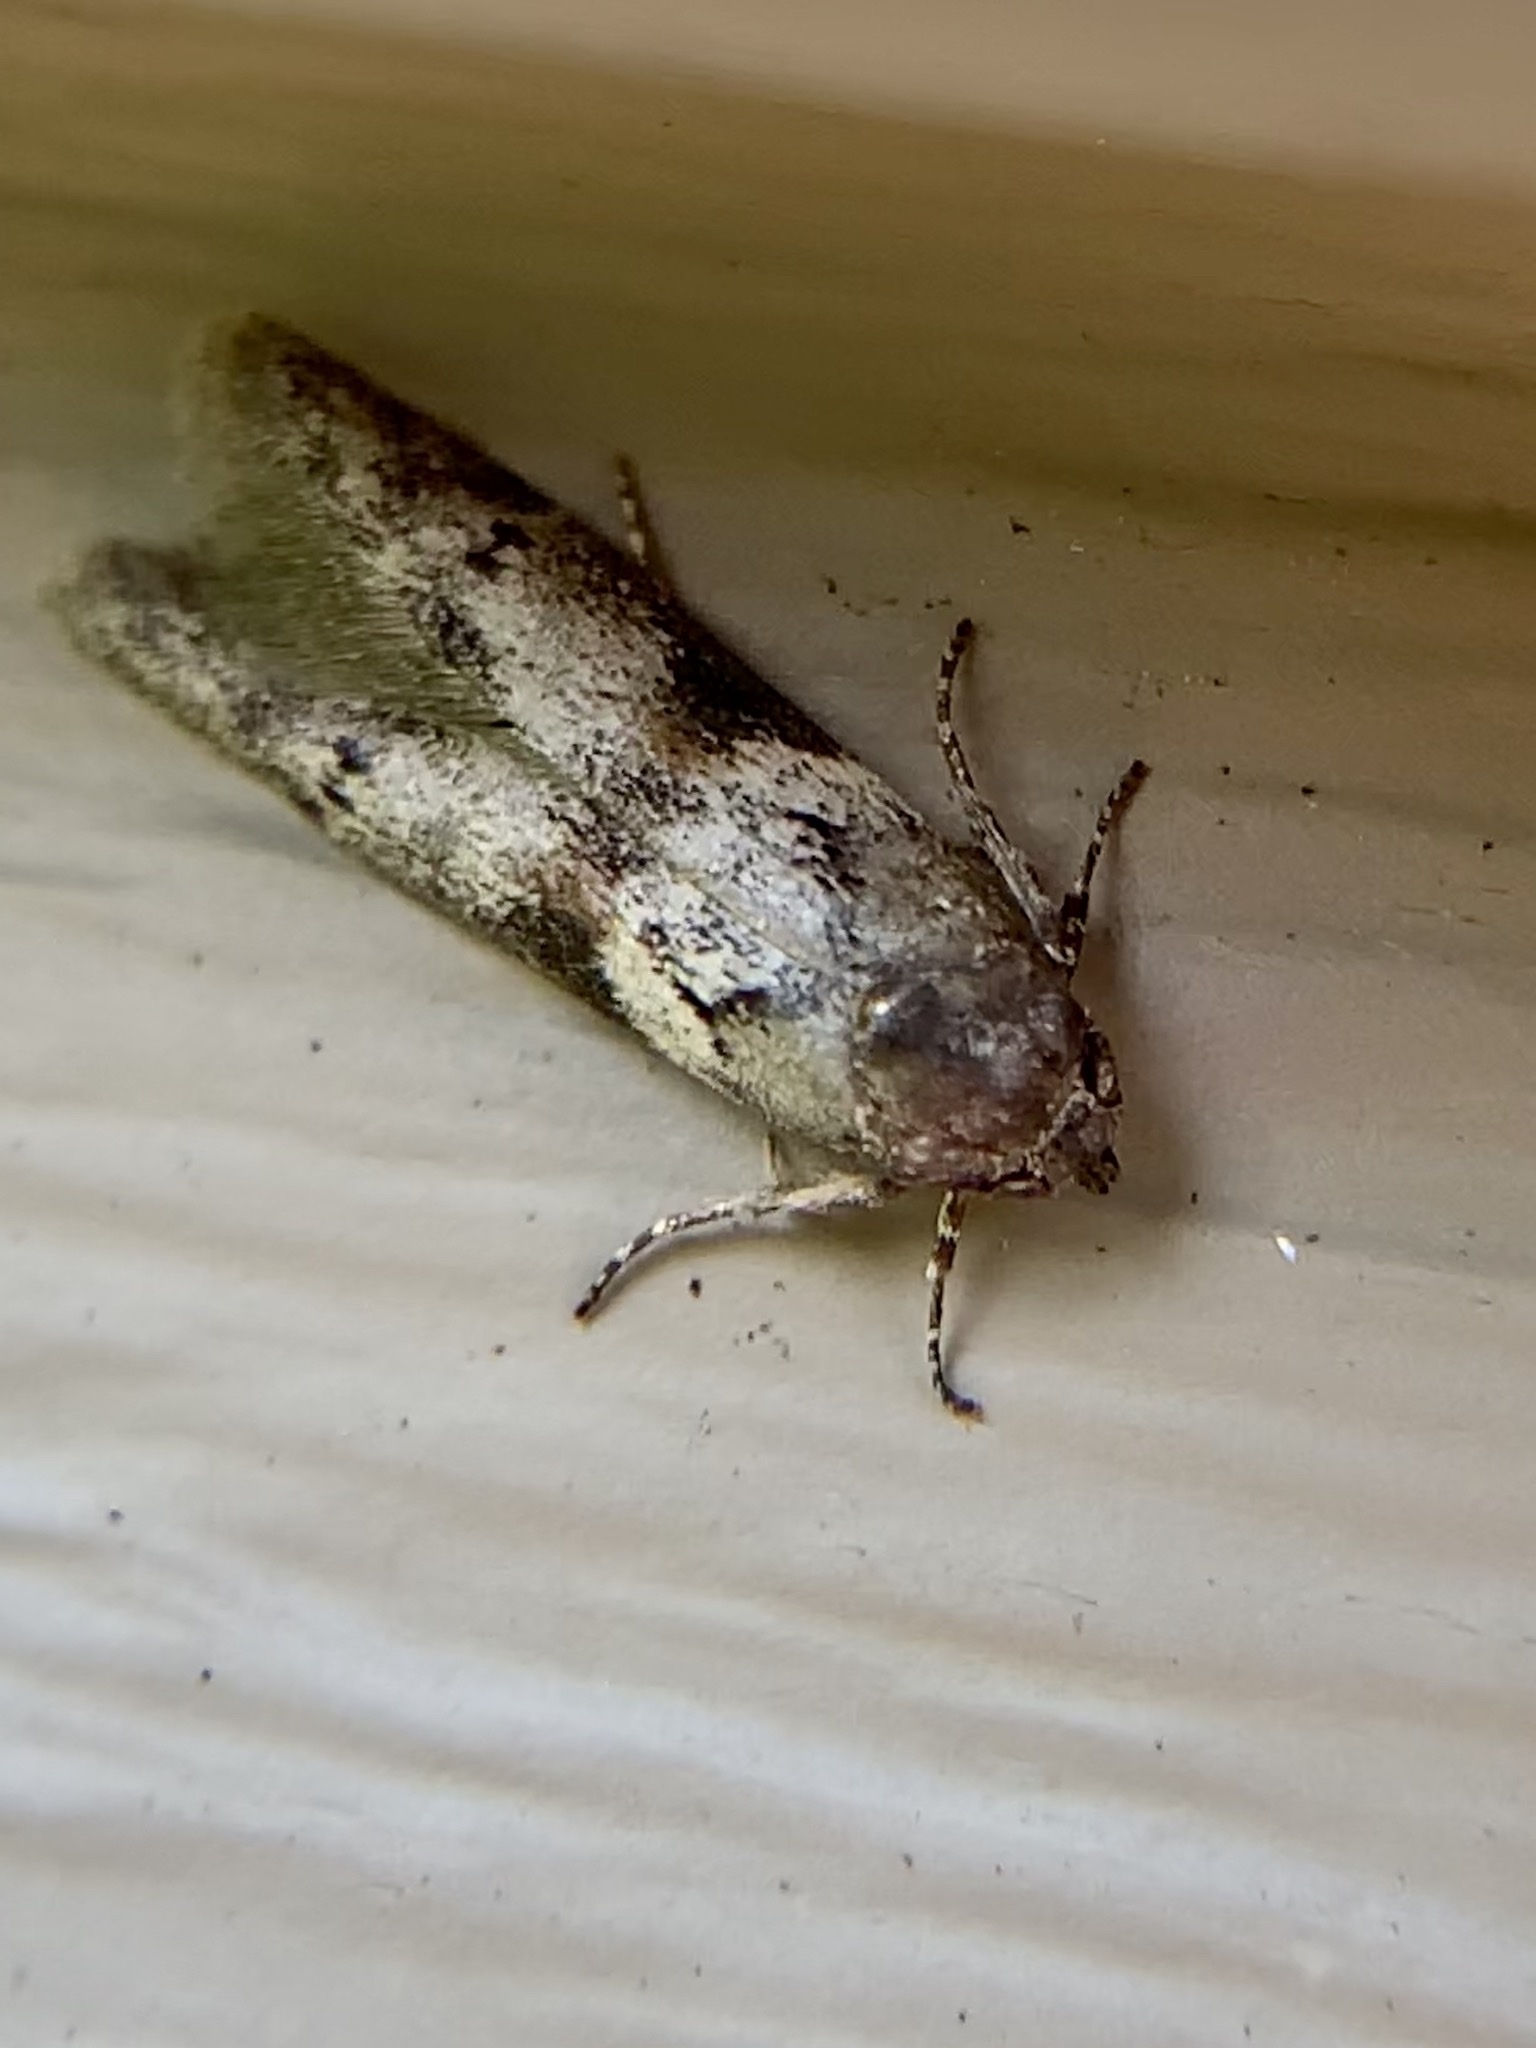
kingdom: Animalia
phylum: Arthropoda
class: Insecta
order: Lepidoptera
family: Blastobasidae
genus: Blastobasis
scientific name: Blastobasis glandulella
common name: Acorn moth
